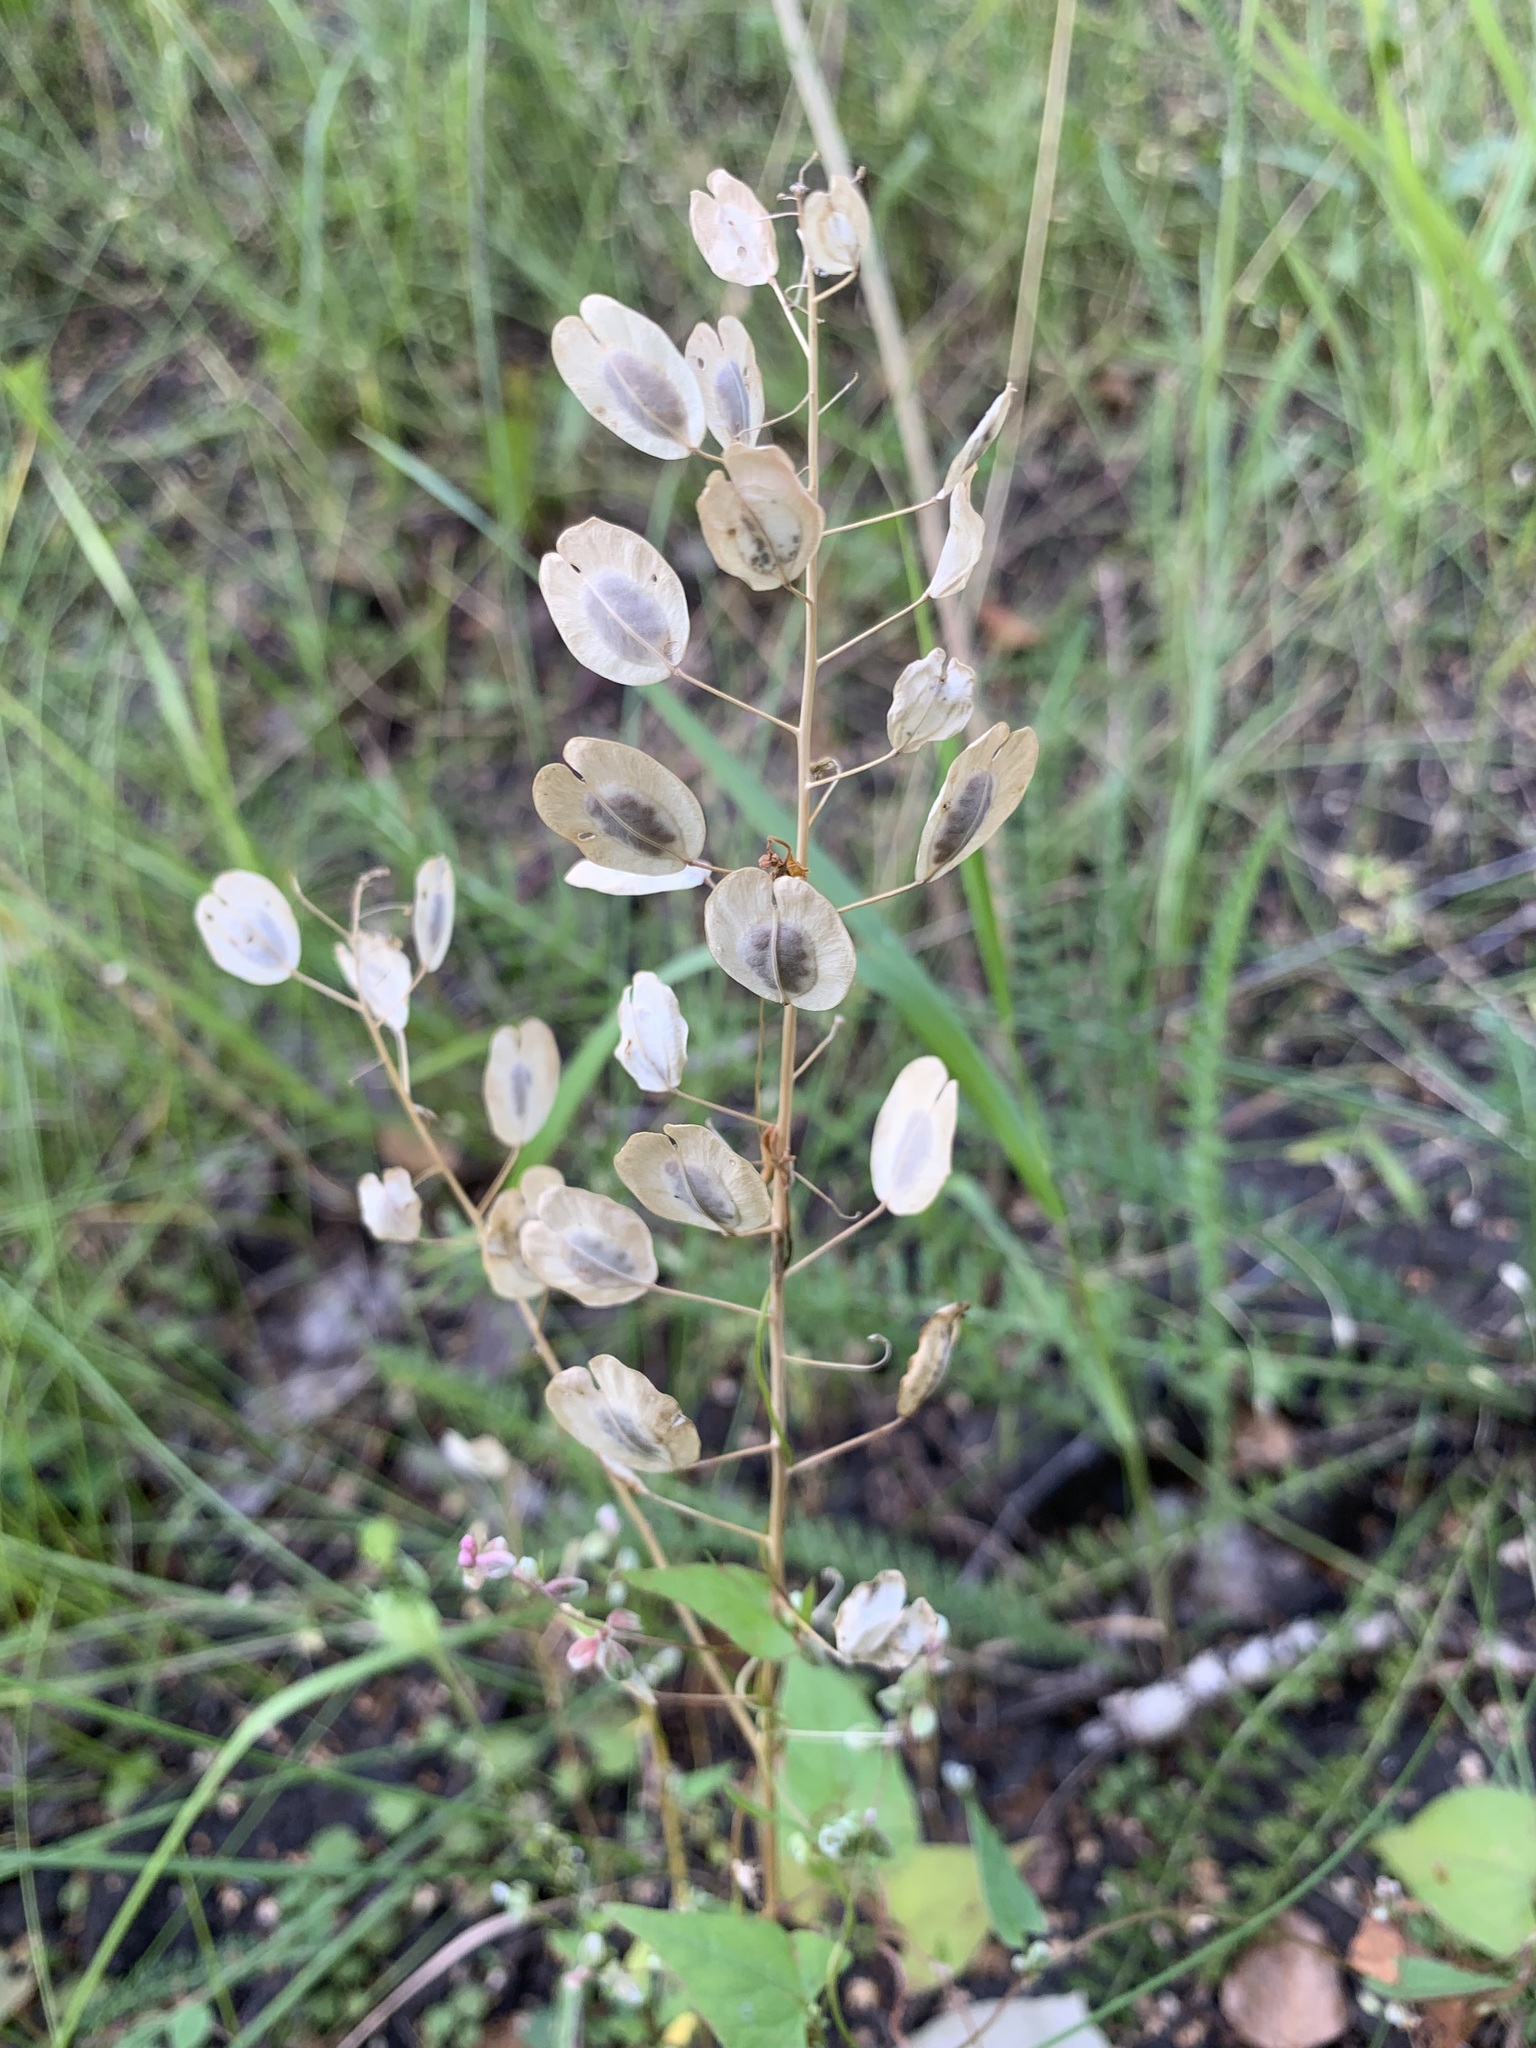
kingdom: Plantae
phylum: Tracheophyta
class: Magnoliopsida
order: Brassicales
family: Brassicaceae
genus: Thlaspi
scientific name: Thlaspi arvense
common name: Field pennycress
